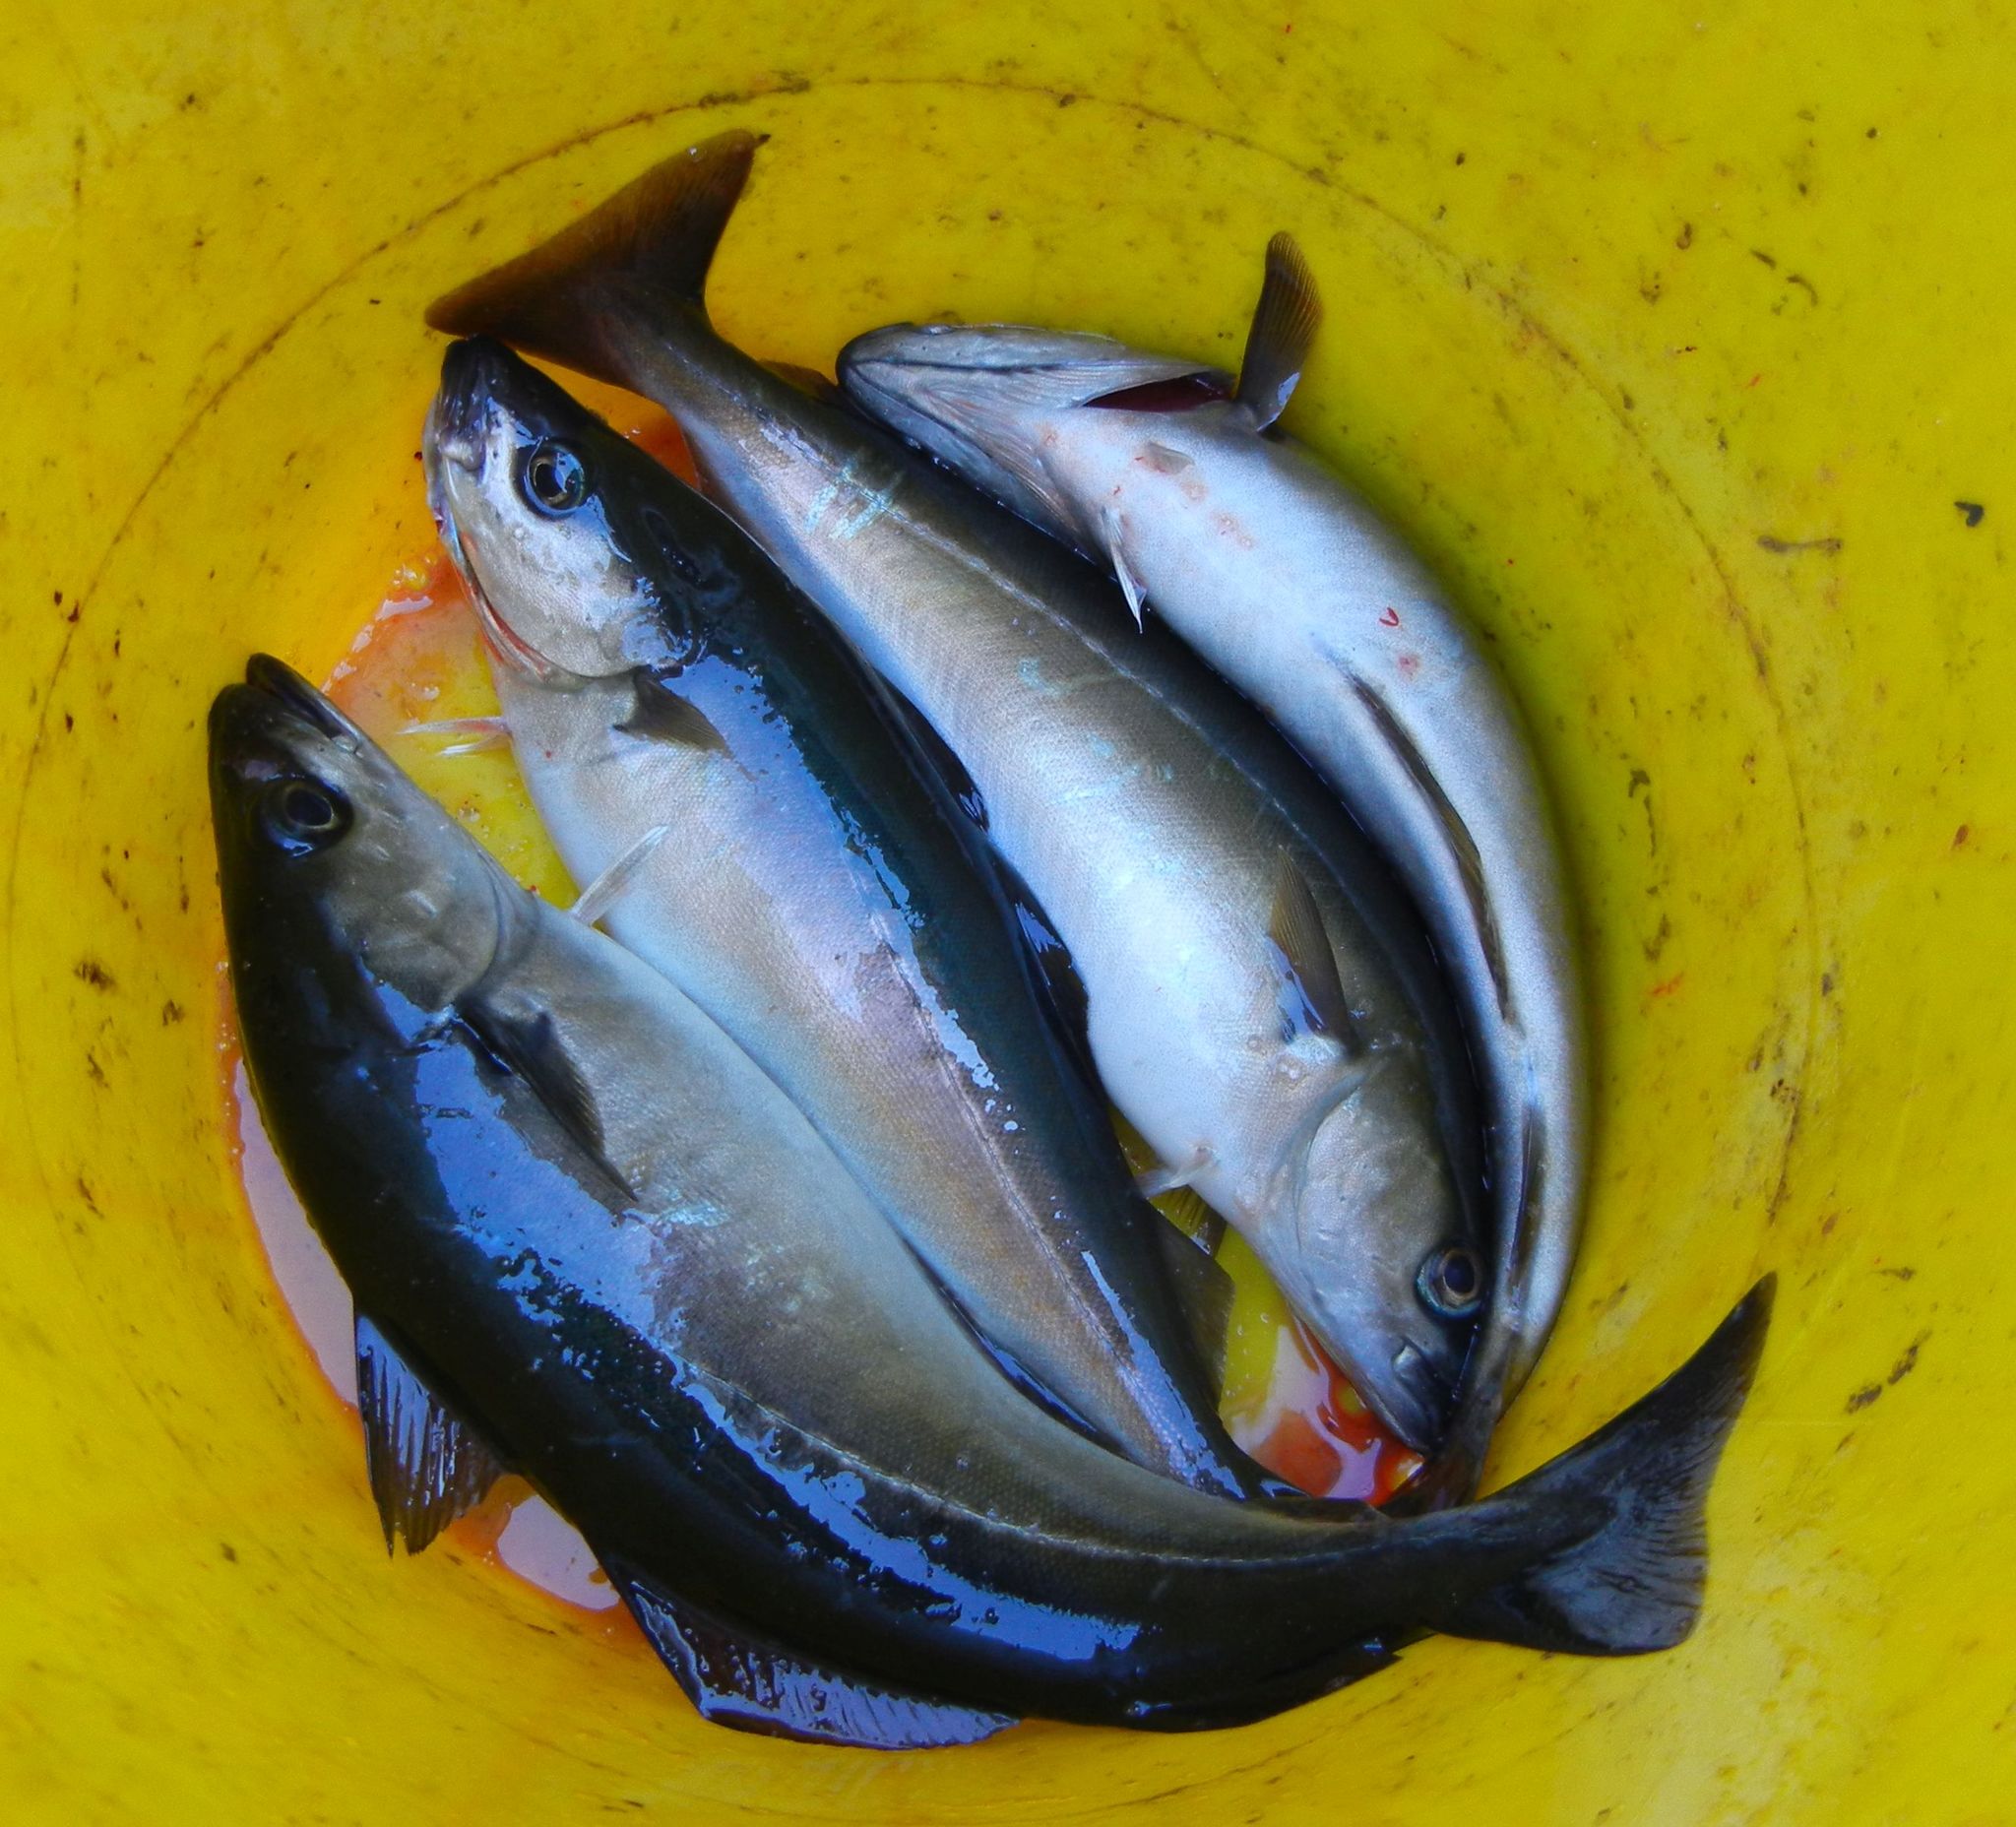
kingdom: Animalia
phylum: Chordata
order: Gadiformes
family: Gadidae
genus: Pollachius
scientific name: Pollachius virens
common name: Saithe
